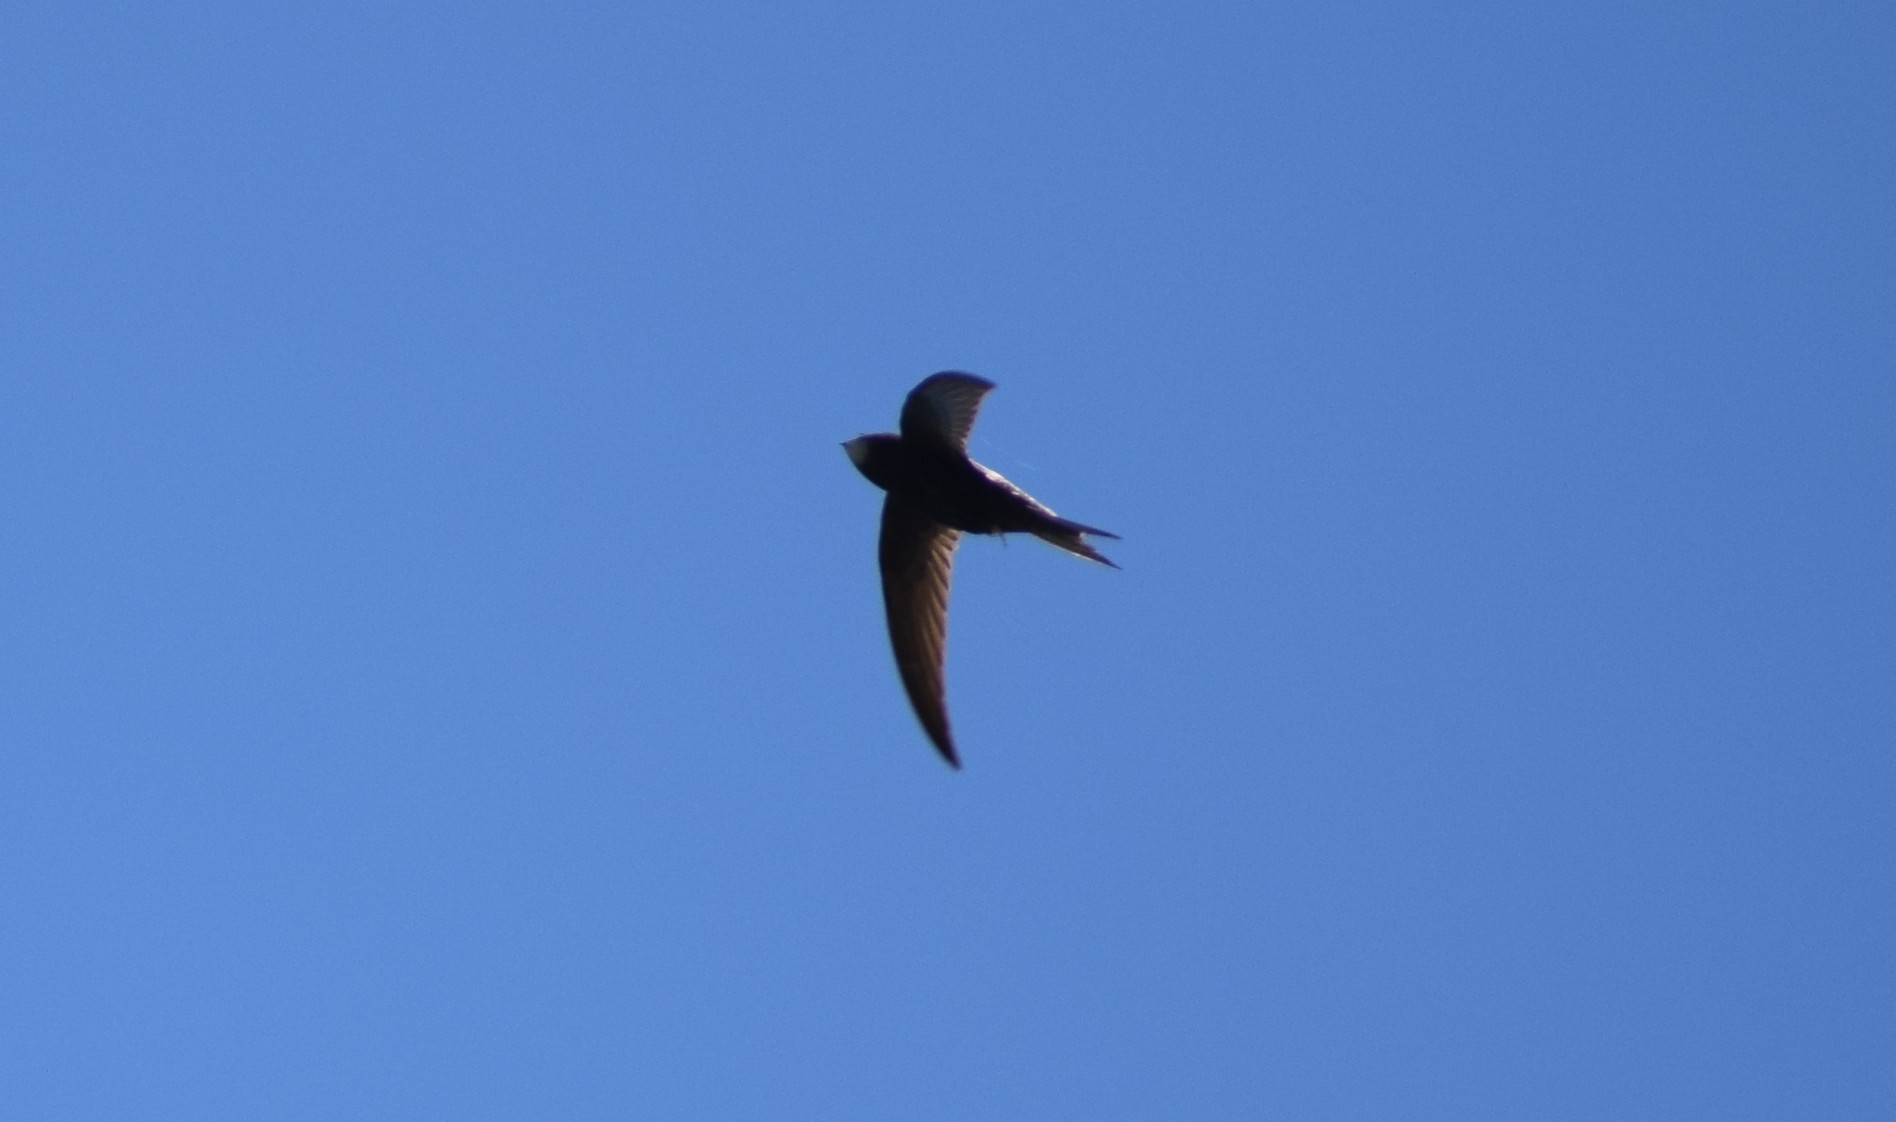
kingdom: Animalia
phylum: Chordata
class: Aves
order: Apodiformes
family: Apodidae
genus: Apus
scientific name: Apus apus
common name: Common swift
